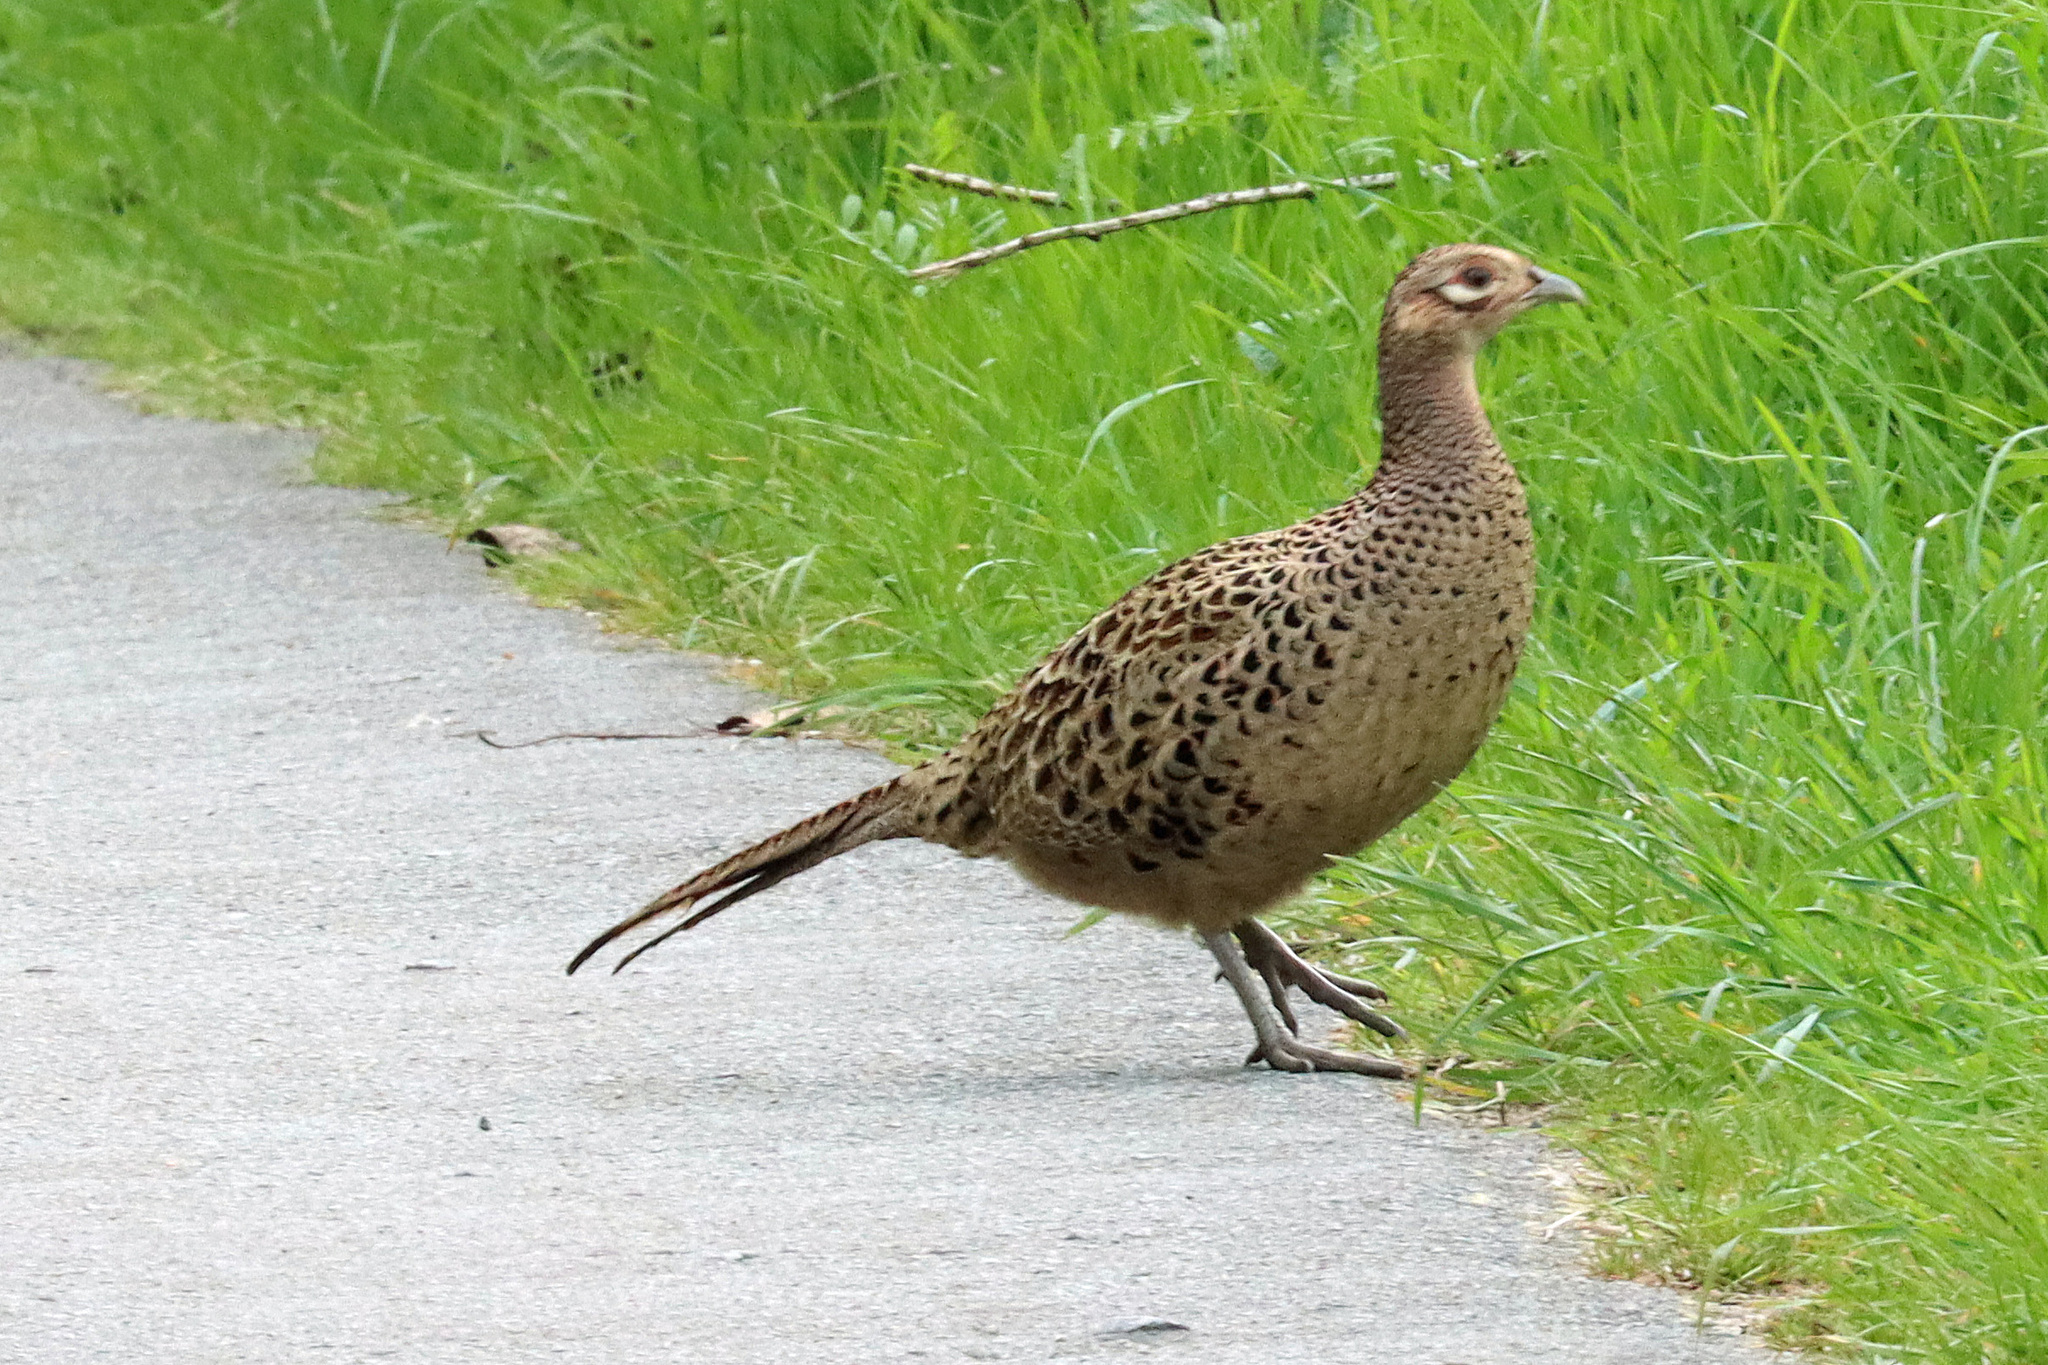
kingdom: Animalia
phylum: Chordata
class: Aves
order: Galliformes
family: Phasianidae
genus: Phasianus
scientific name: Phasianus colchicus
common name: Common pheasant
